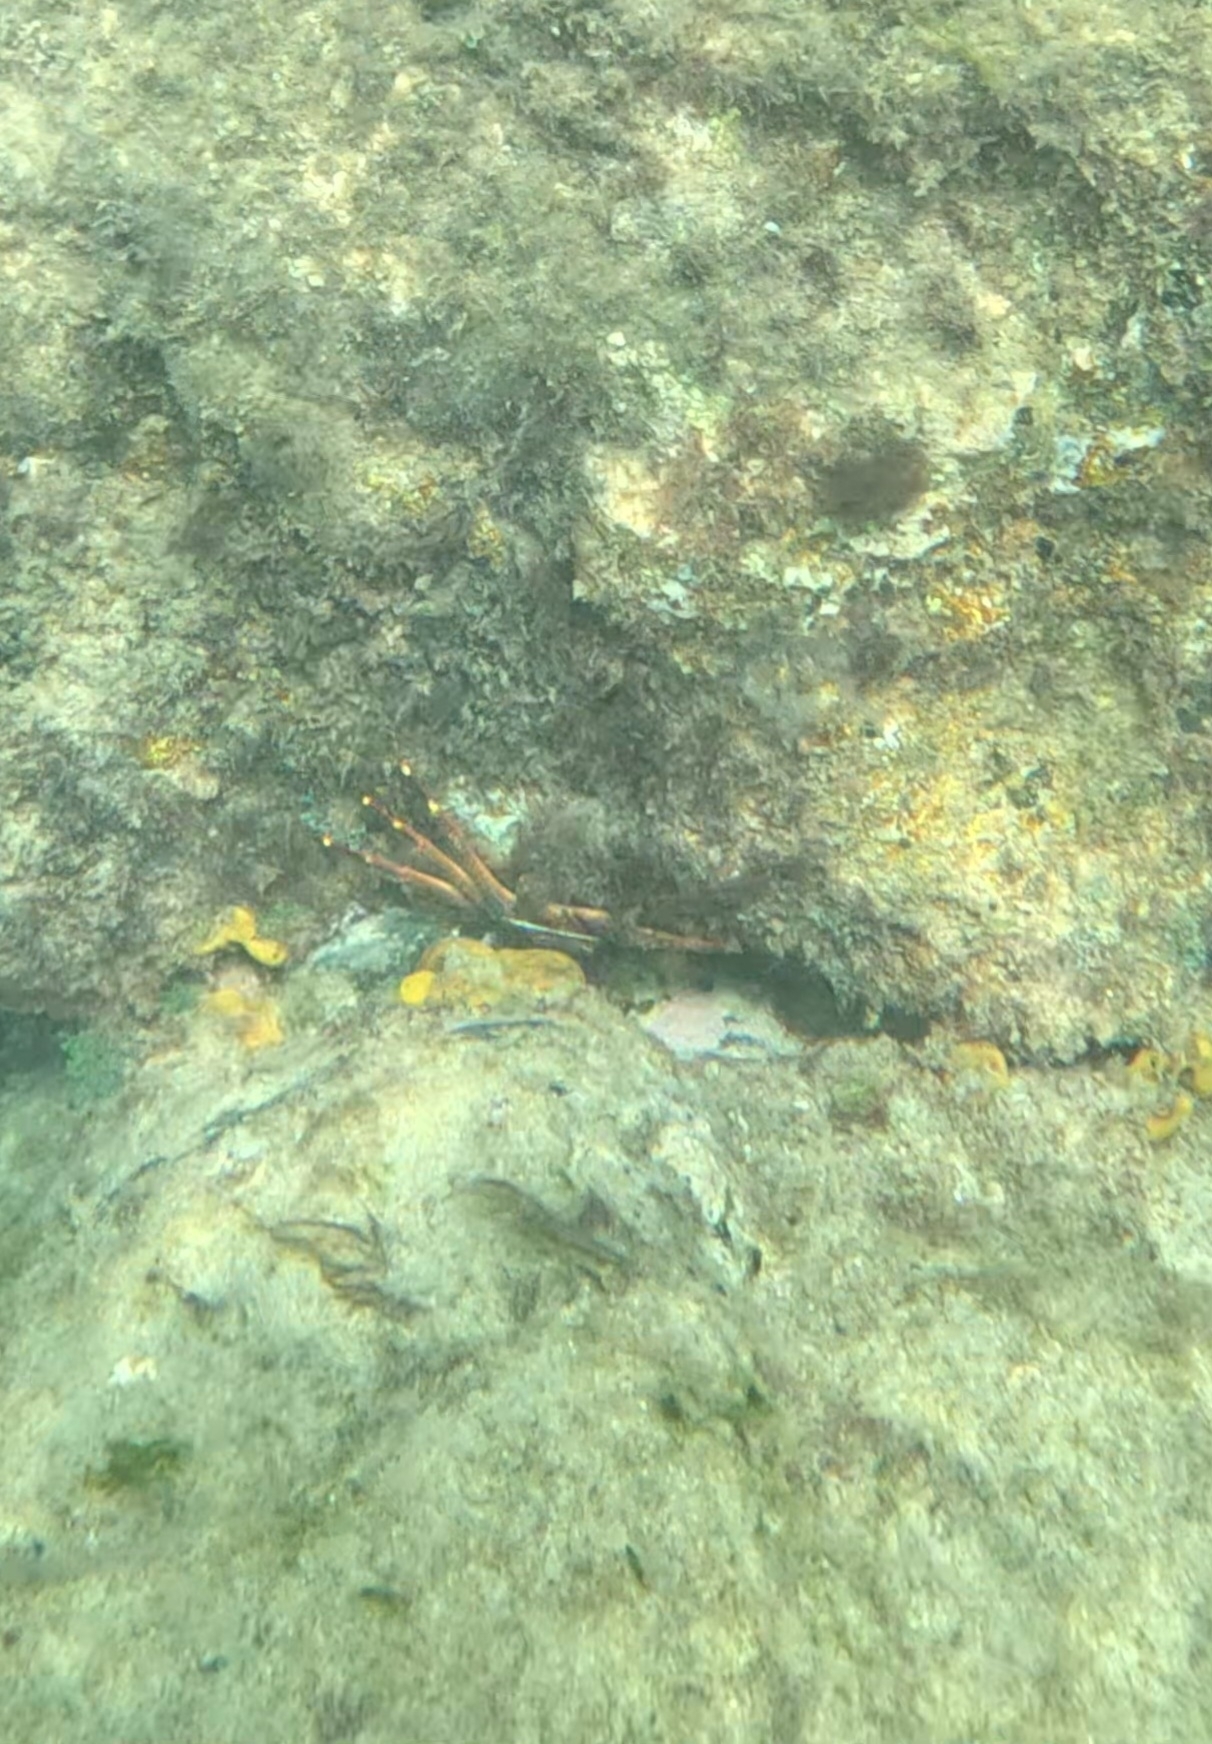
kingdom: Animalia
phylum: Arthropoda
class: Malacostraca
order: Decapoda
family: Percnidae
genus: Percnon
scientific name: Percnon gibbesi
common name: Nimble spray crab
